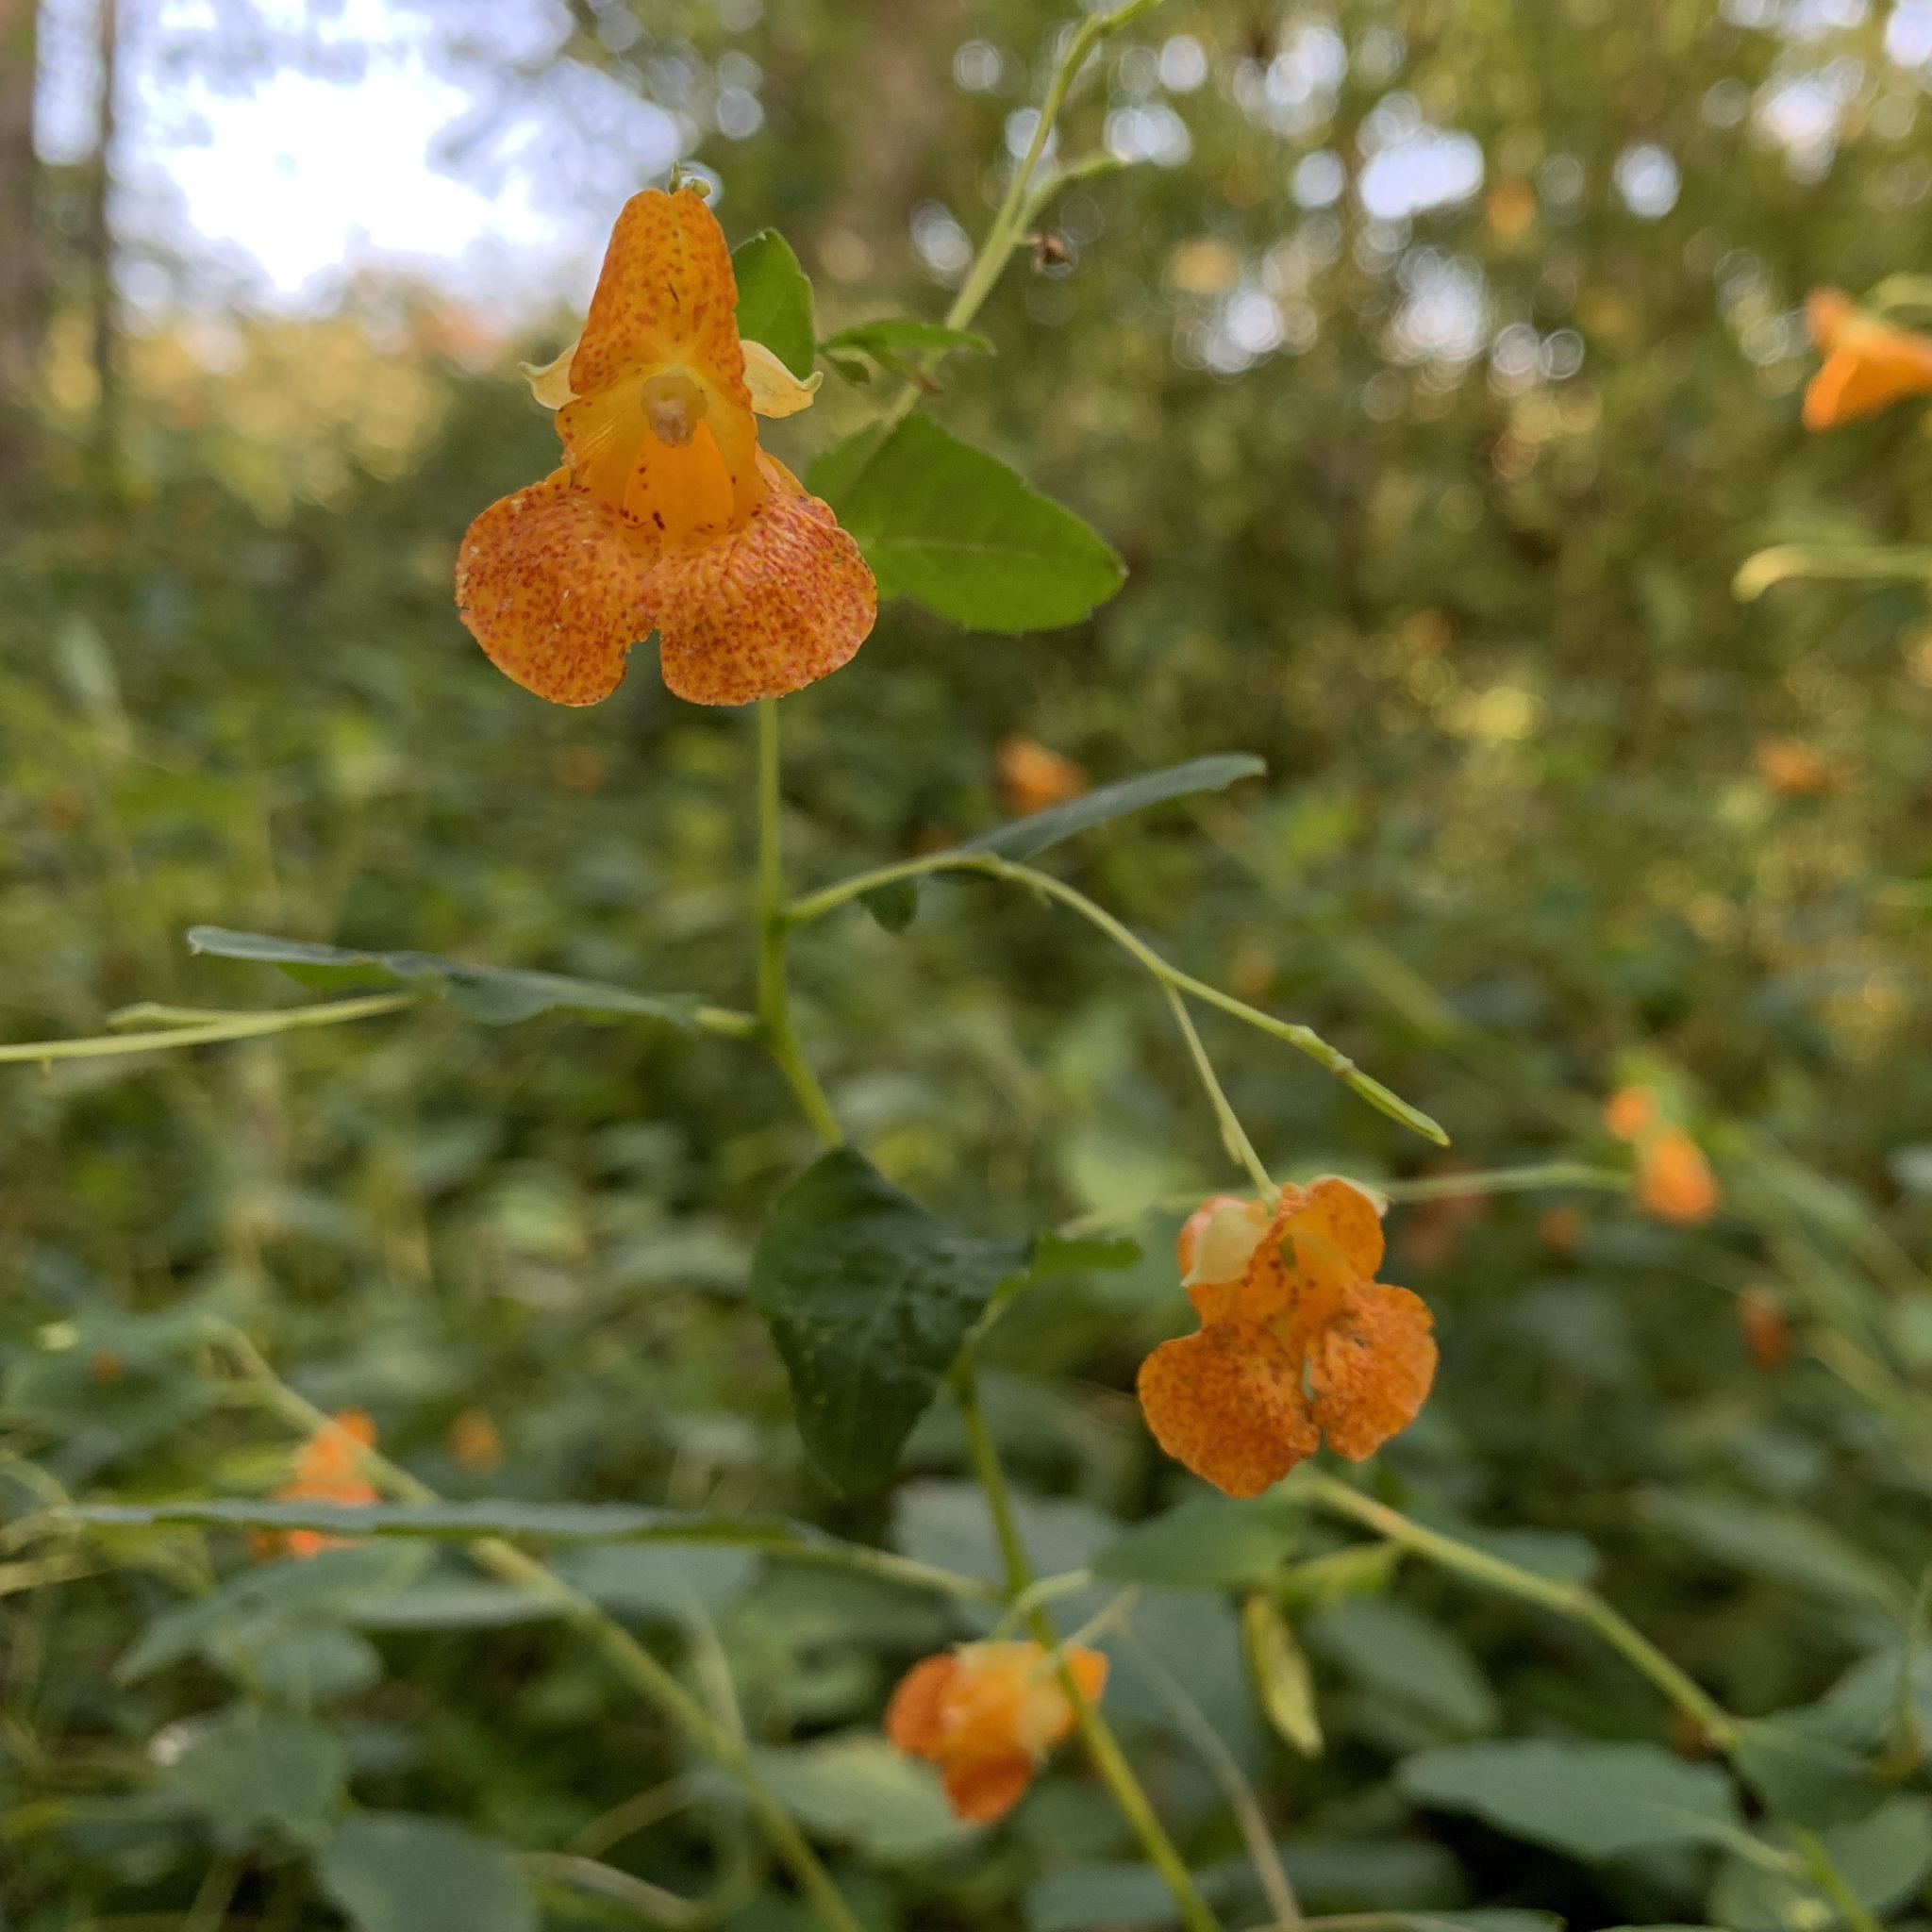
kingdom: Plantae
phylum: Tracheophyta
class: Magnoliopsida
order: Ericales
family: Balsaminaceae
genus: Impatiens
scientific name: Impatiens capensis
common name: Orange balsam
